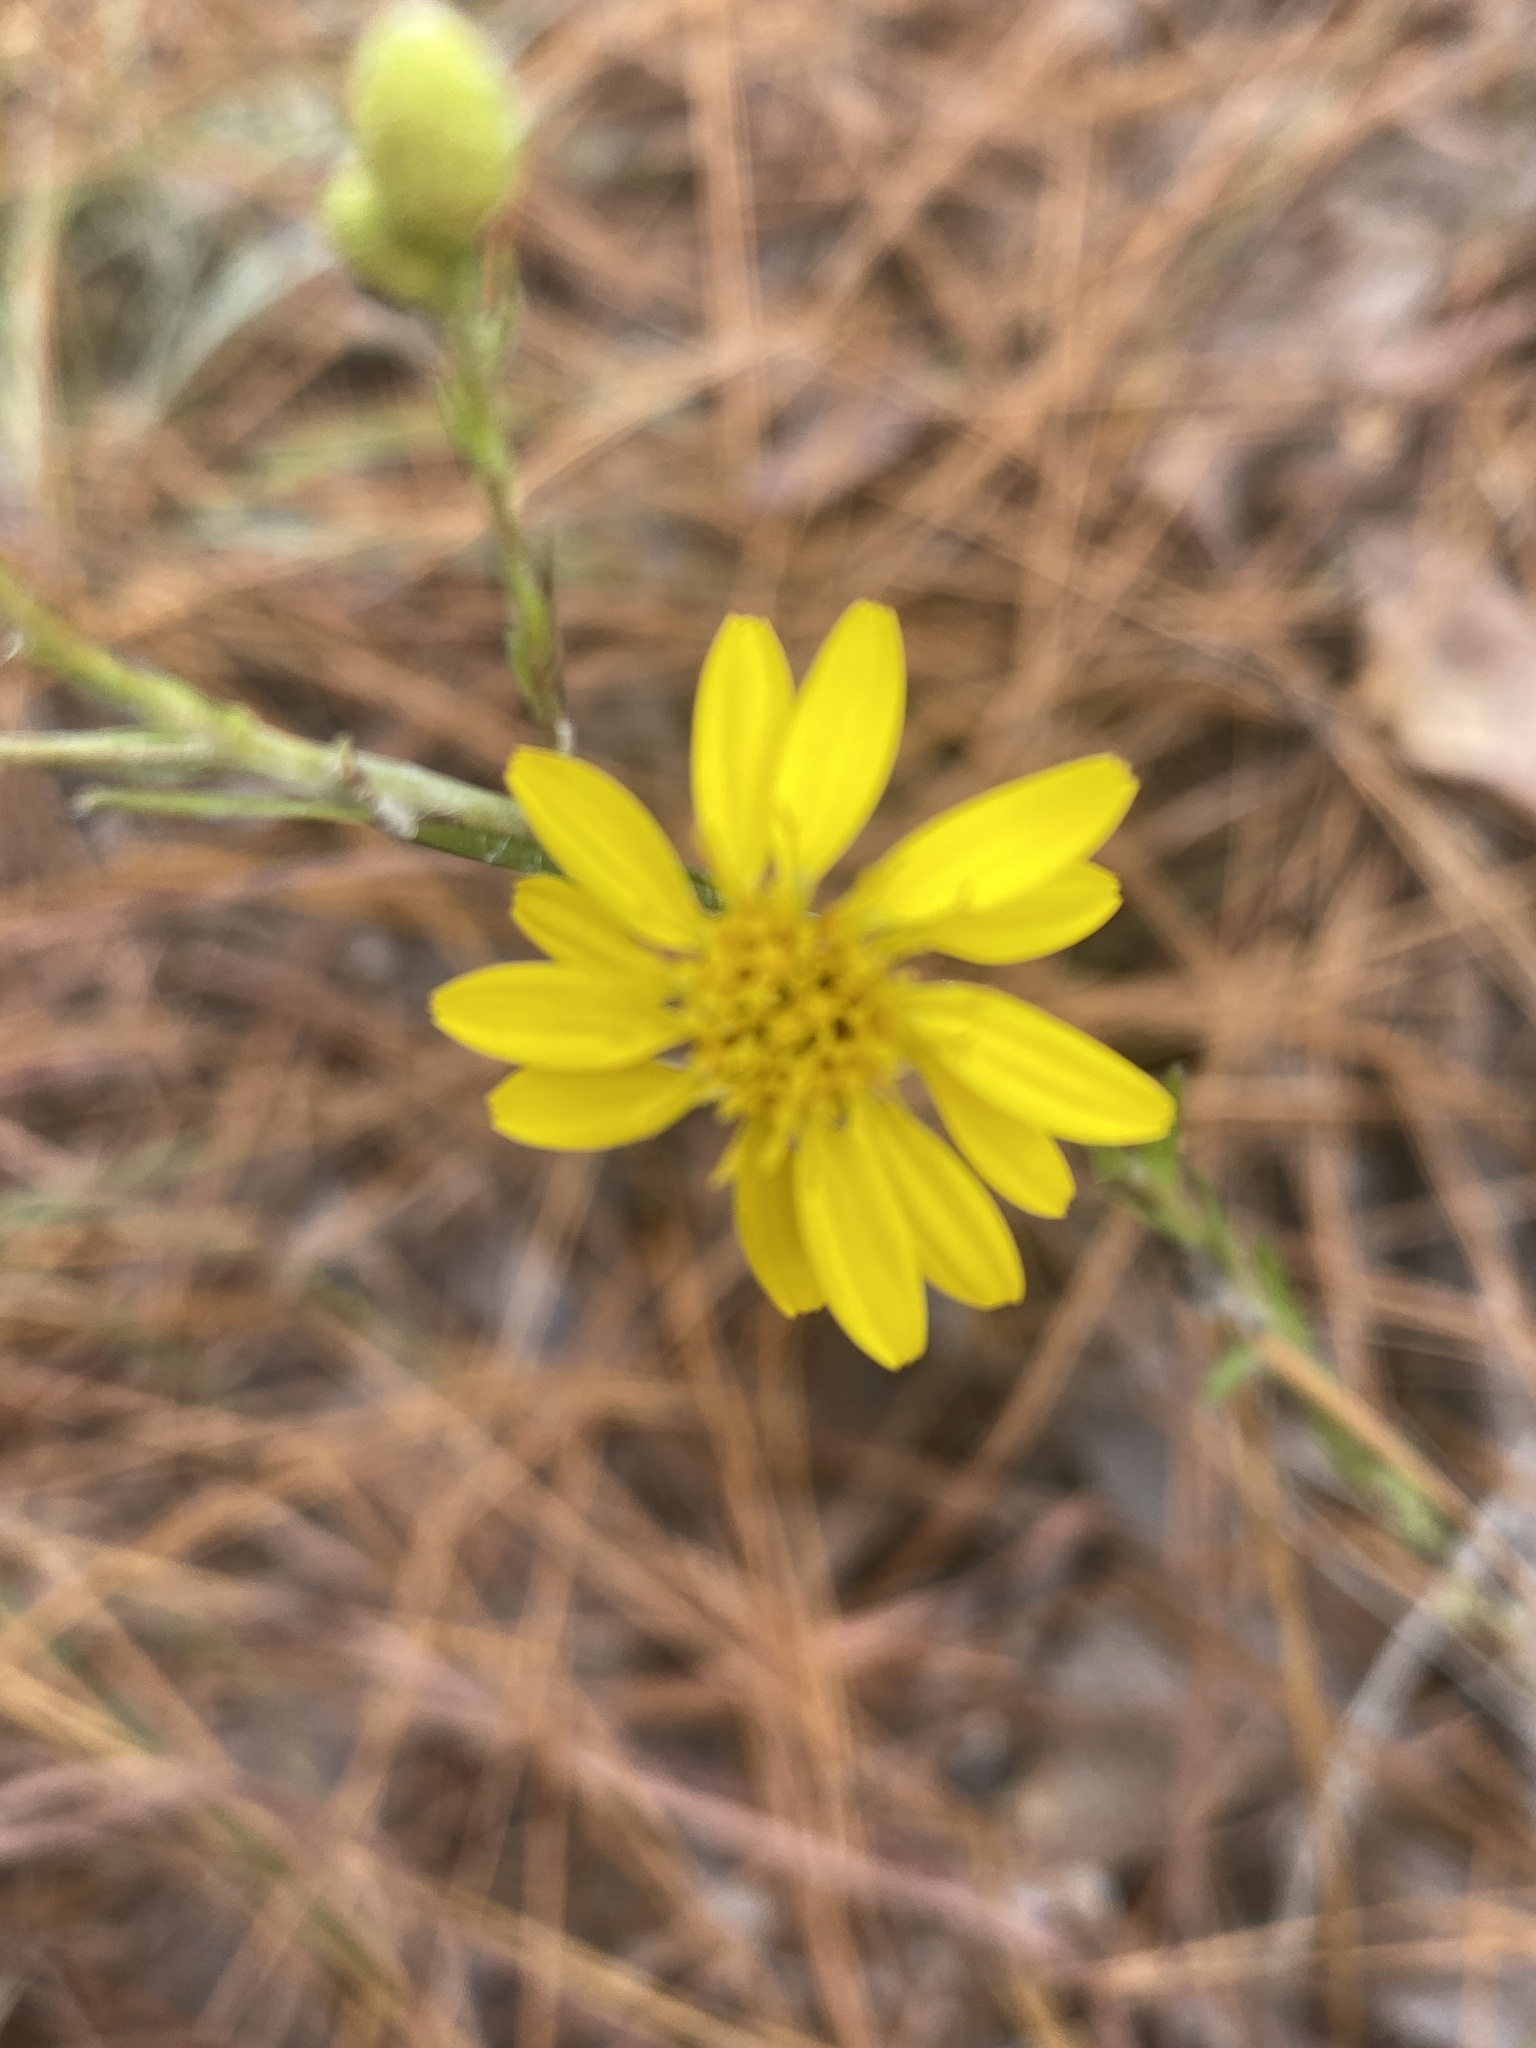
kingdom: Plantae
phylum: Tracheophyta
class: Magnoliopsida
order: Asterales
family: Asteraceae
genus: Pityopsis
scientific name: Pityopsis aspera
